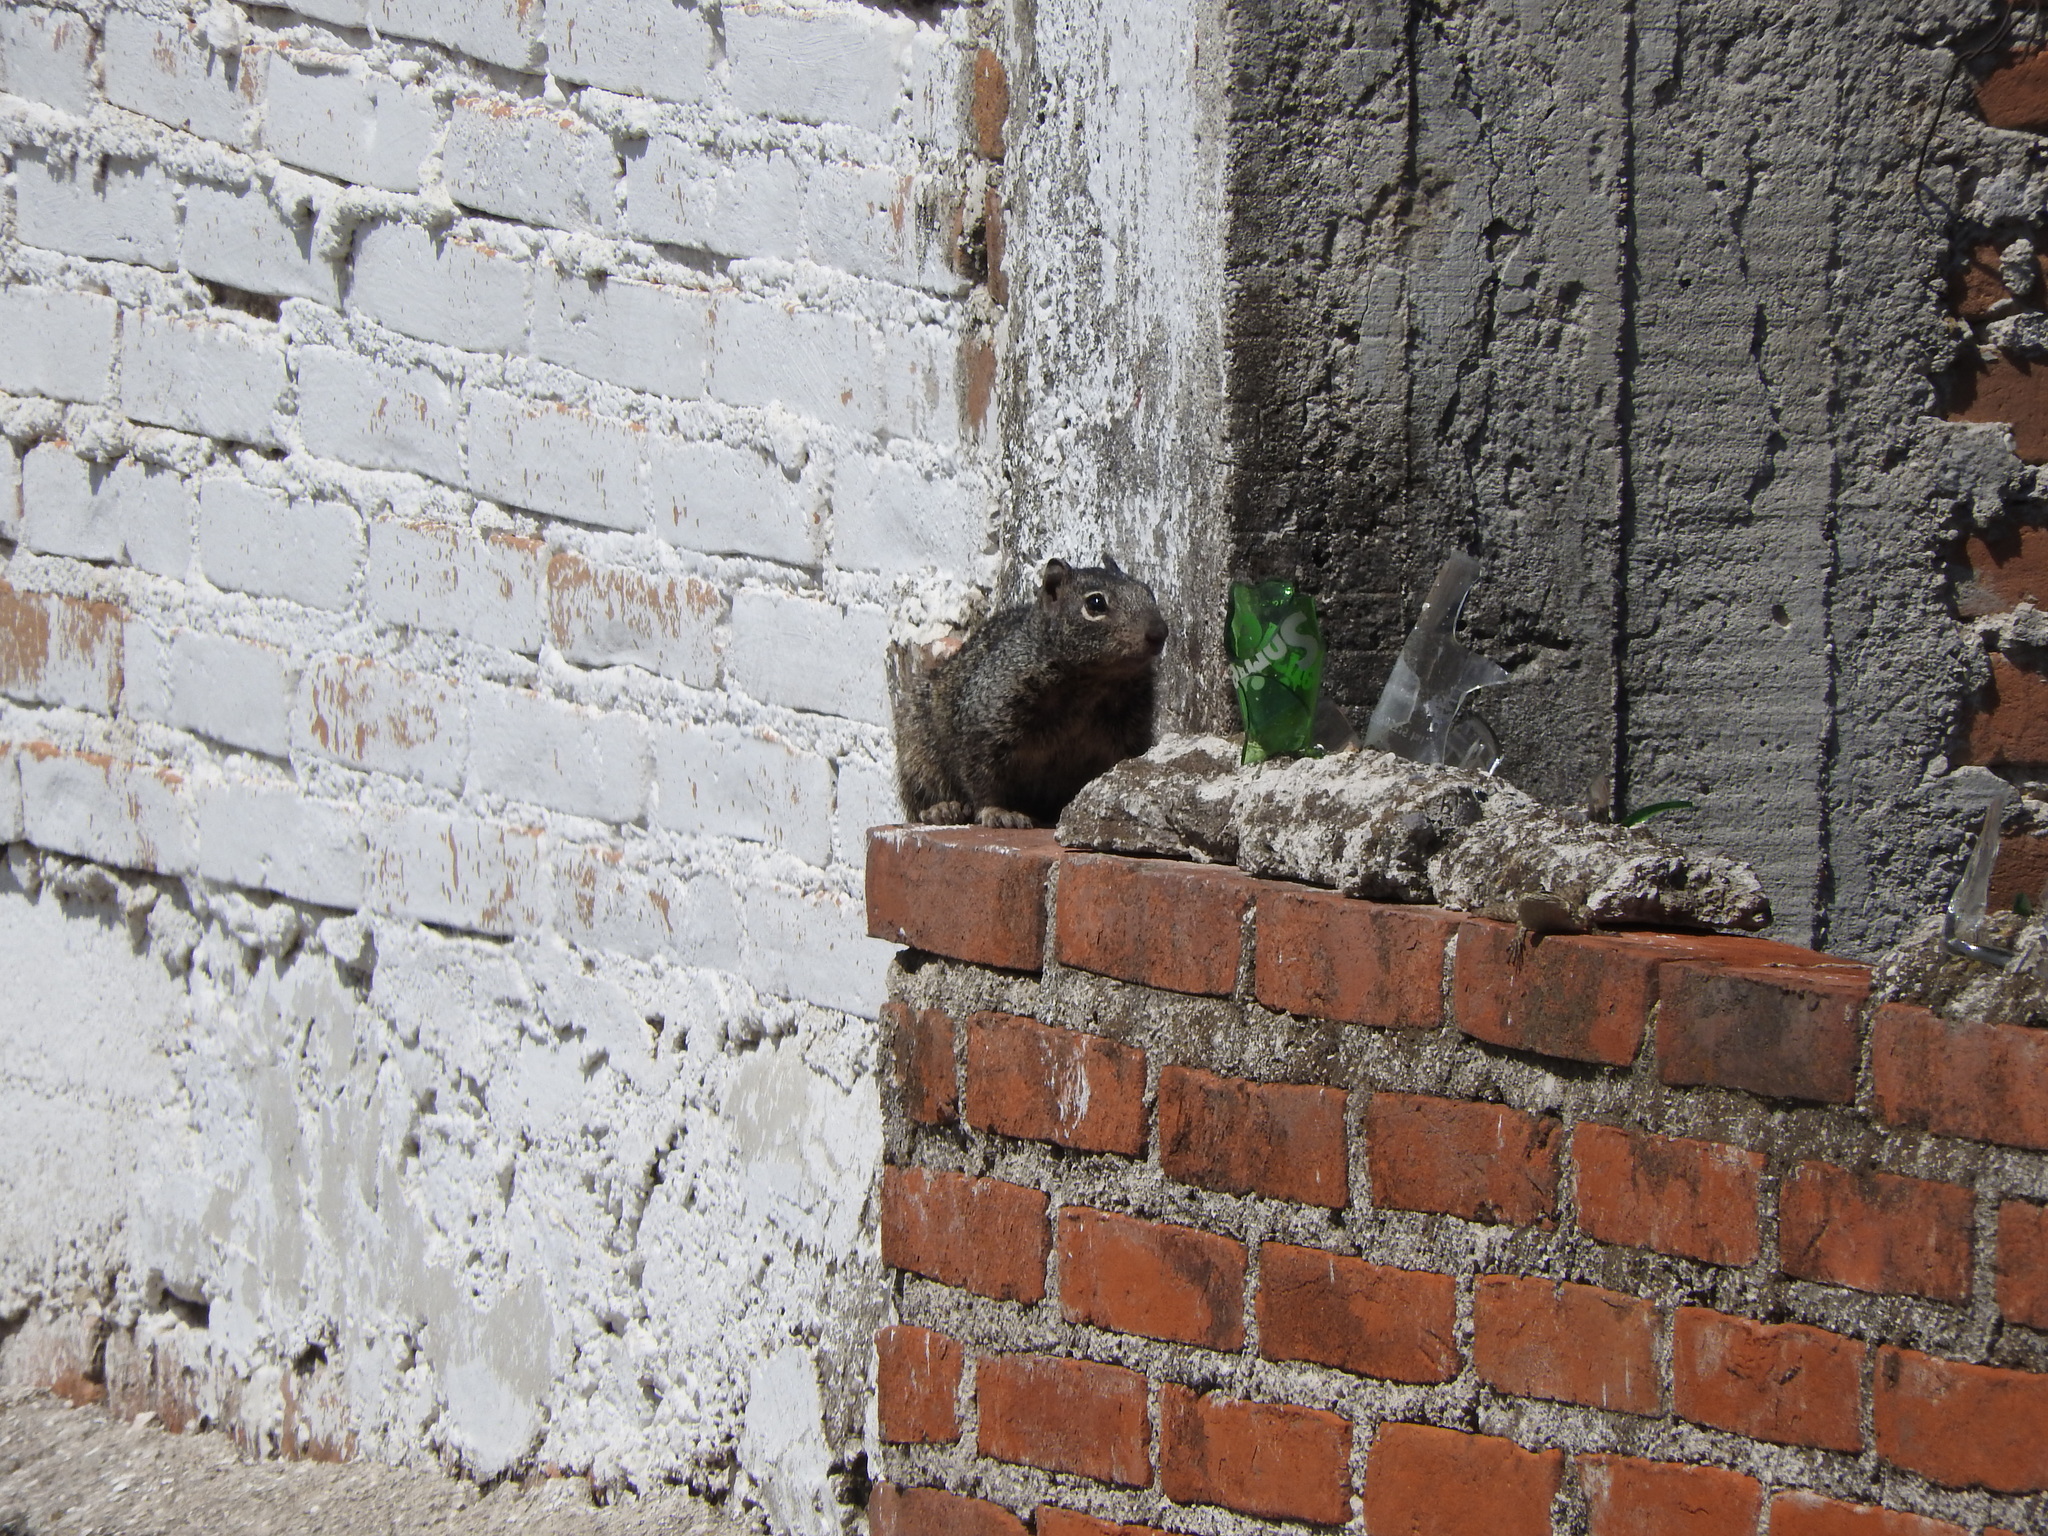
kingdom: Animalia
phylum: Chordata
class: Mammalia
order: Rodentia
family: Sciuridae
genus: Otospermophilus
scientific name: Otospermophilus variegatus
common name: Rock squirrel
